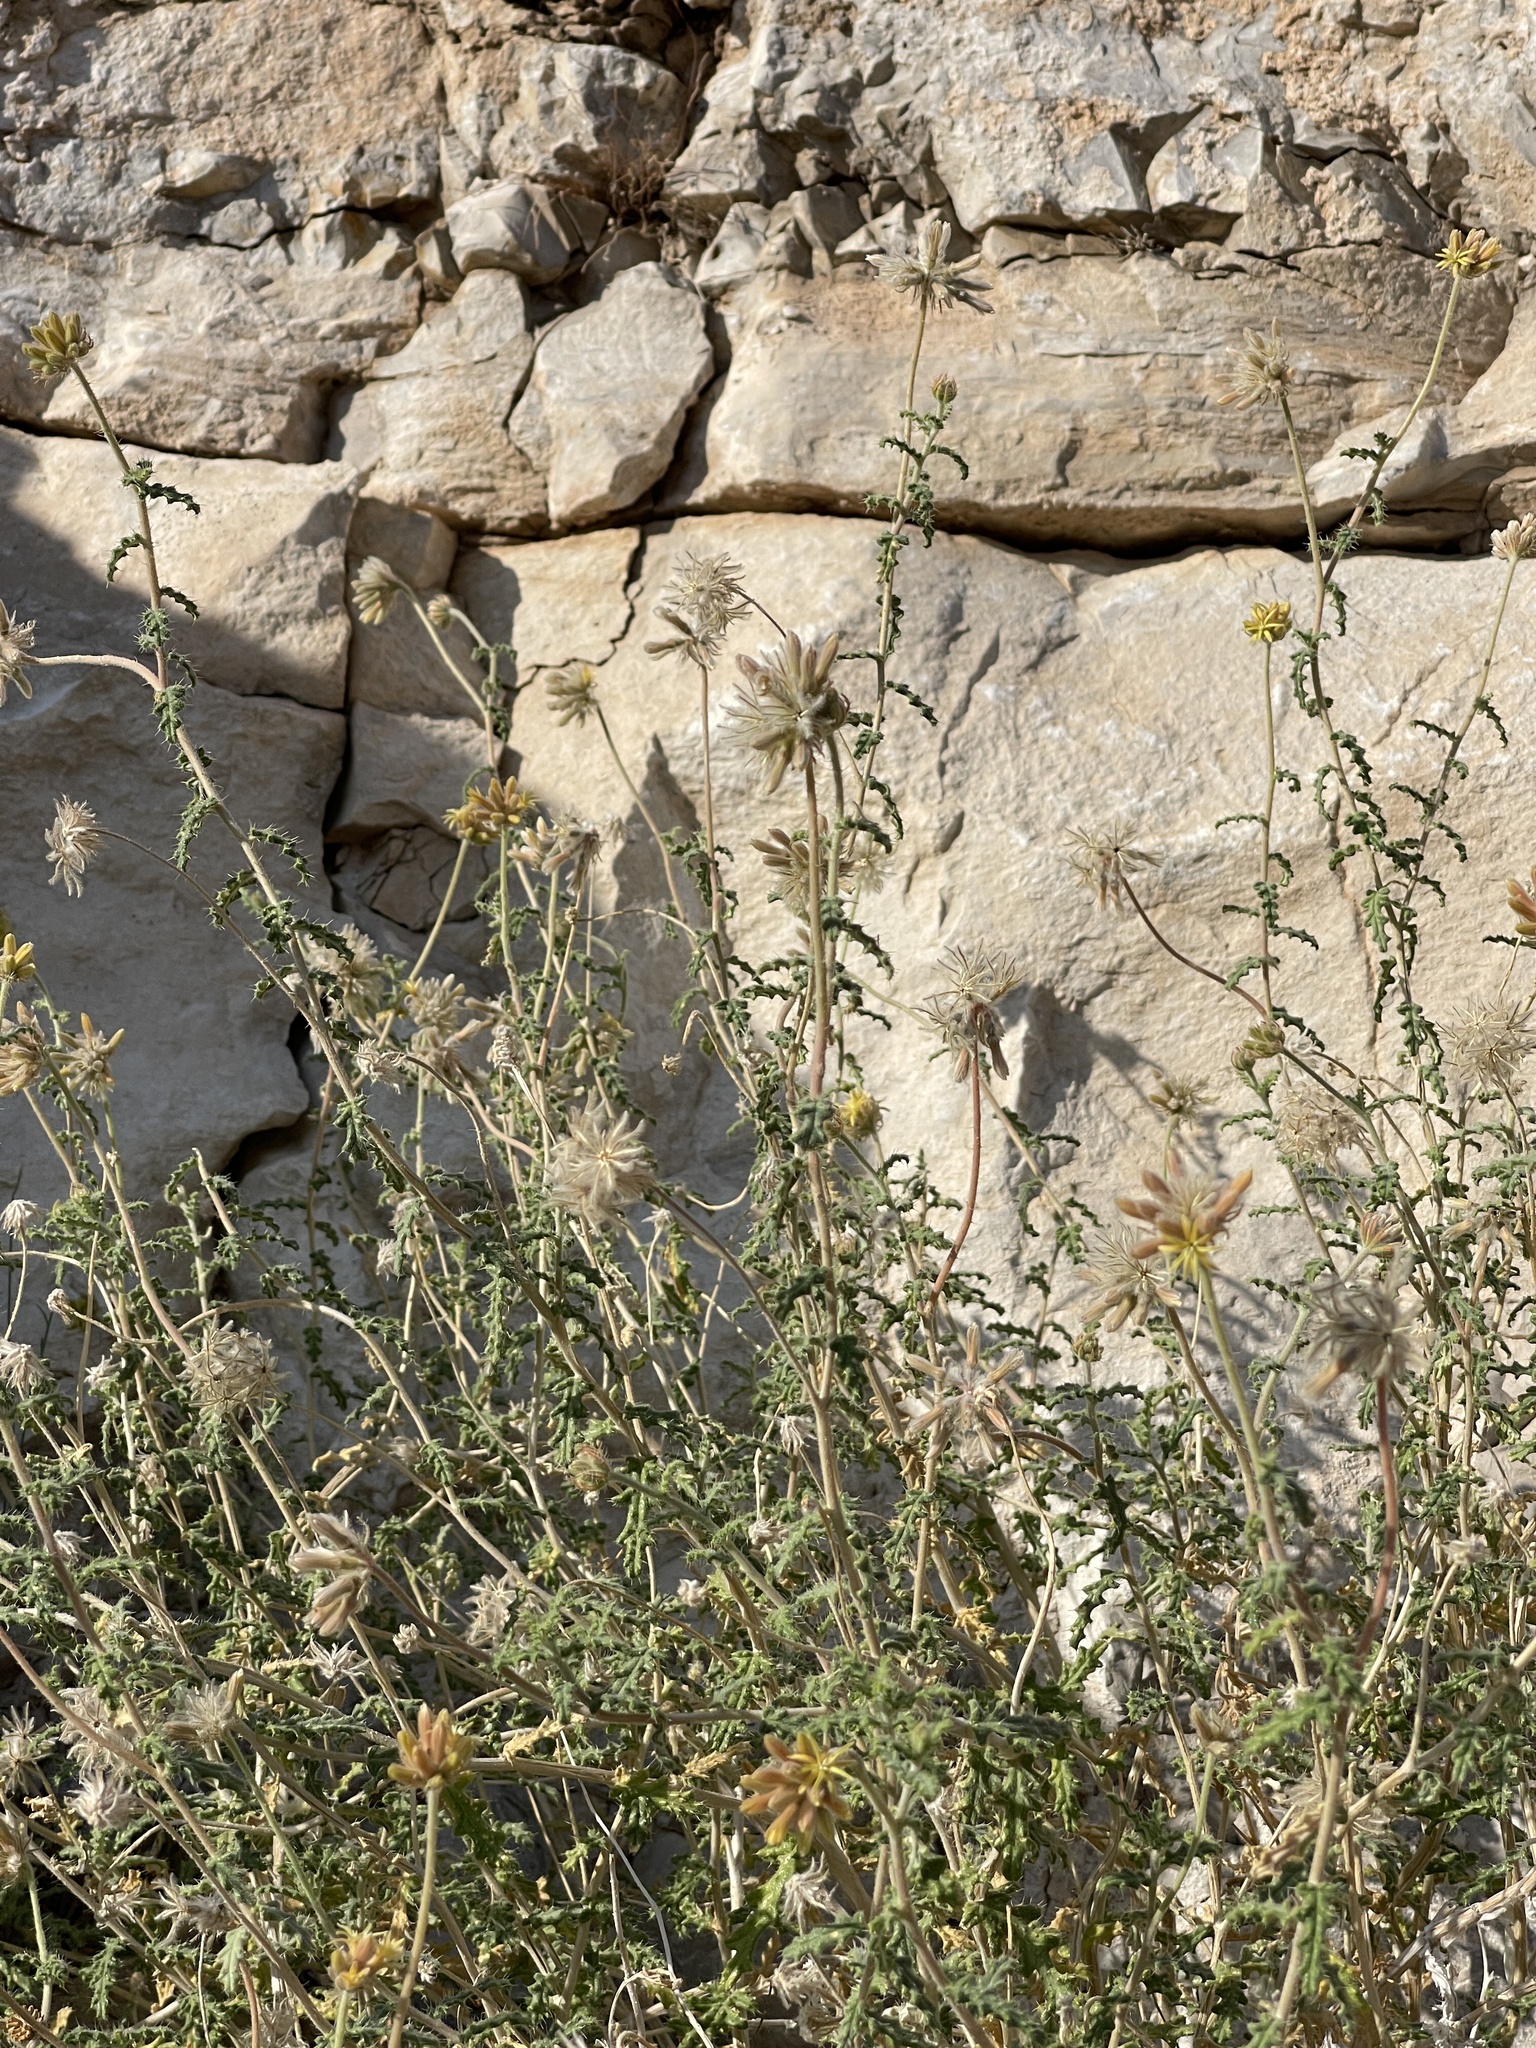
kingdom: Plantae
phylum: Tracheophyta
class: Magnoliopsida
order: Cornales
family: Loasaceae
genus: Cevallia
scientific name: Cevallia sinuata
